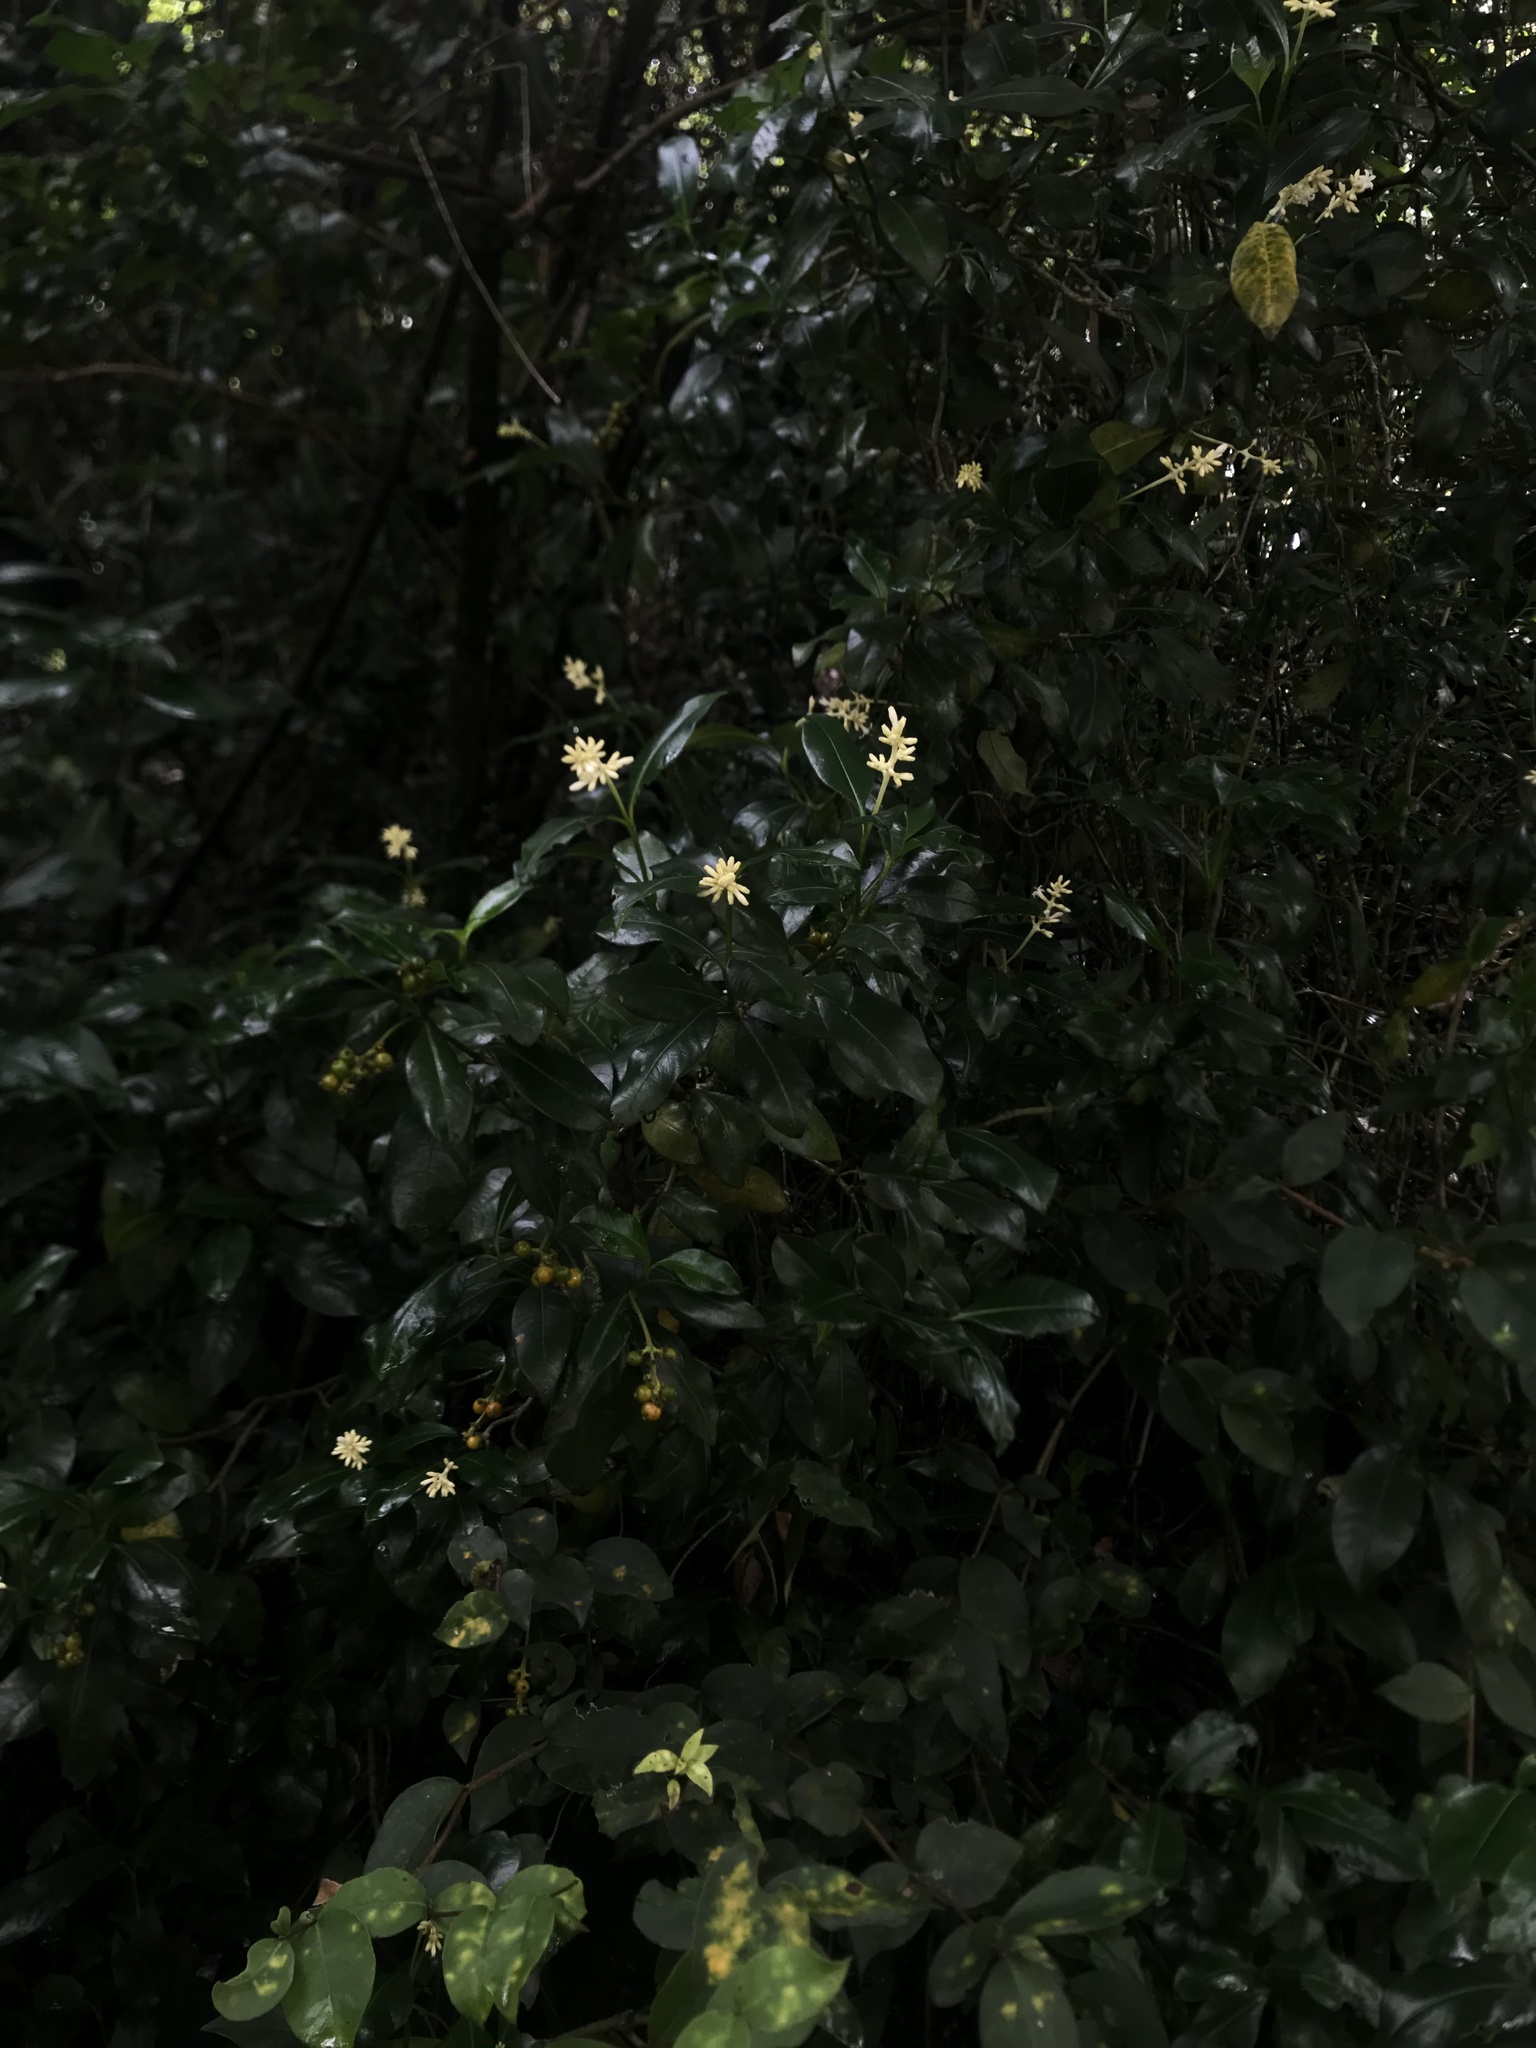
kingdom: Plantae
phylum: Tracheophyta
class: Magnoliopsida
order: Gentianales
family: Rubiaceae
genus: Palicourea
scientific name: Palicourea boqueronensis
